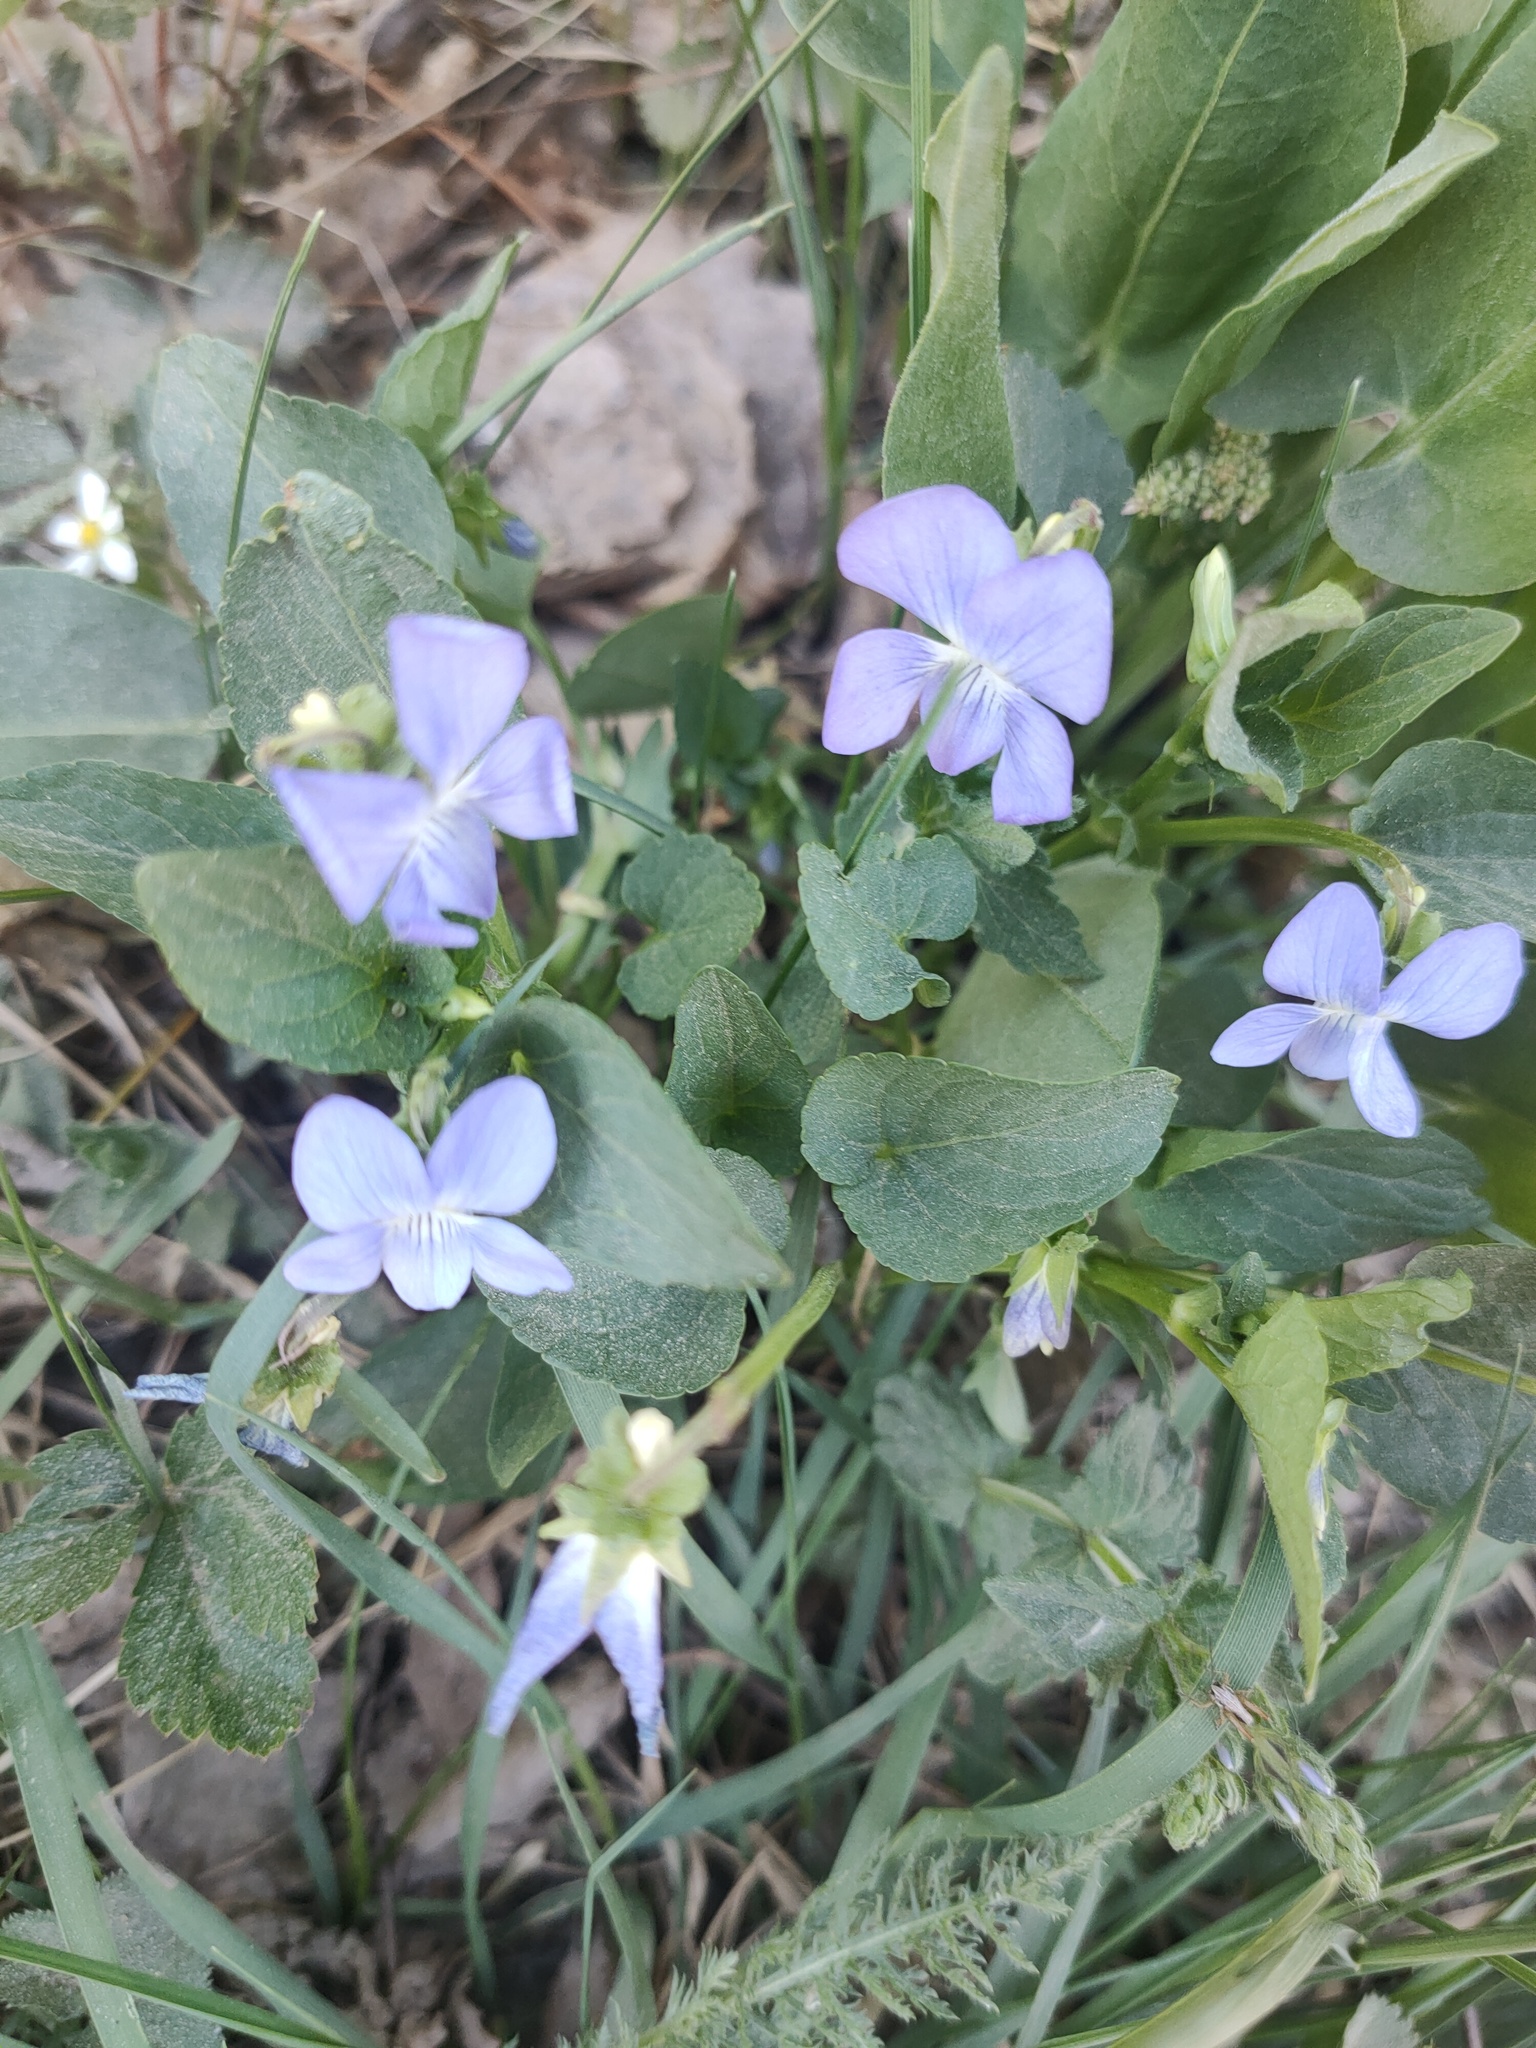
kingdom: Plantae
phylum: Tracheophyta
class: Magnoliopsida
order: Malpighiales
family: Violaceae
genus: Viola
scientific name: Viola canina
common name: Heath dog-violet
